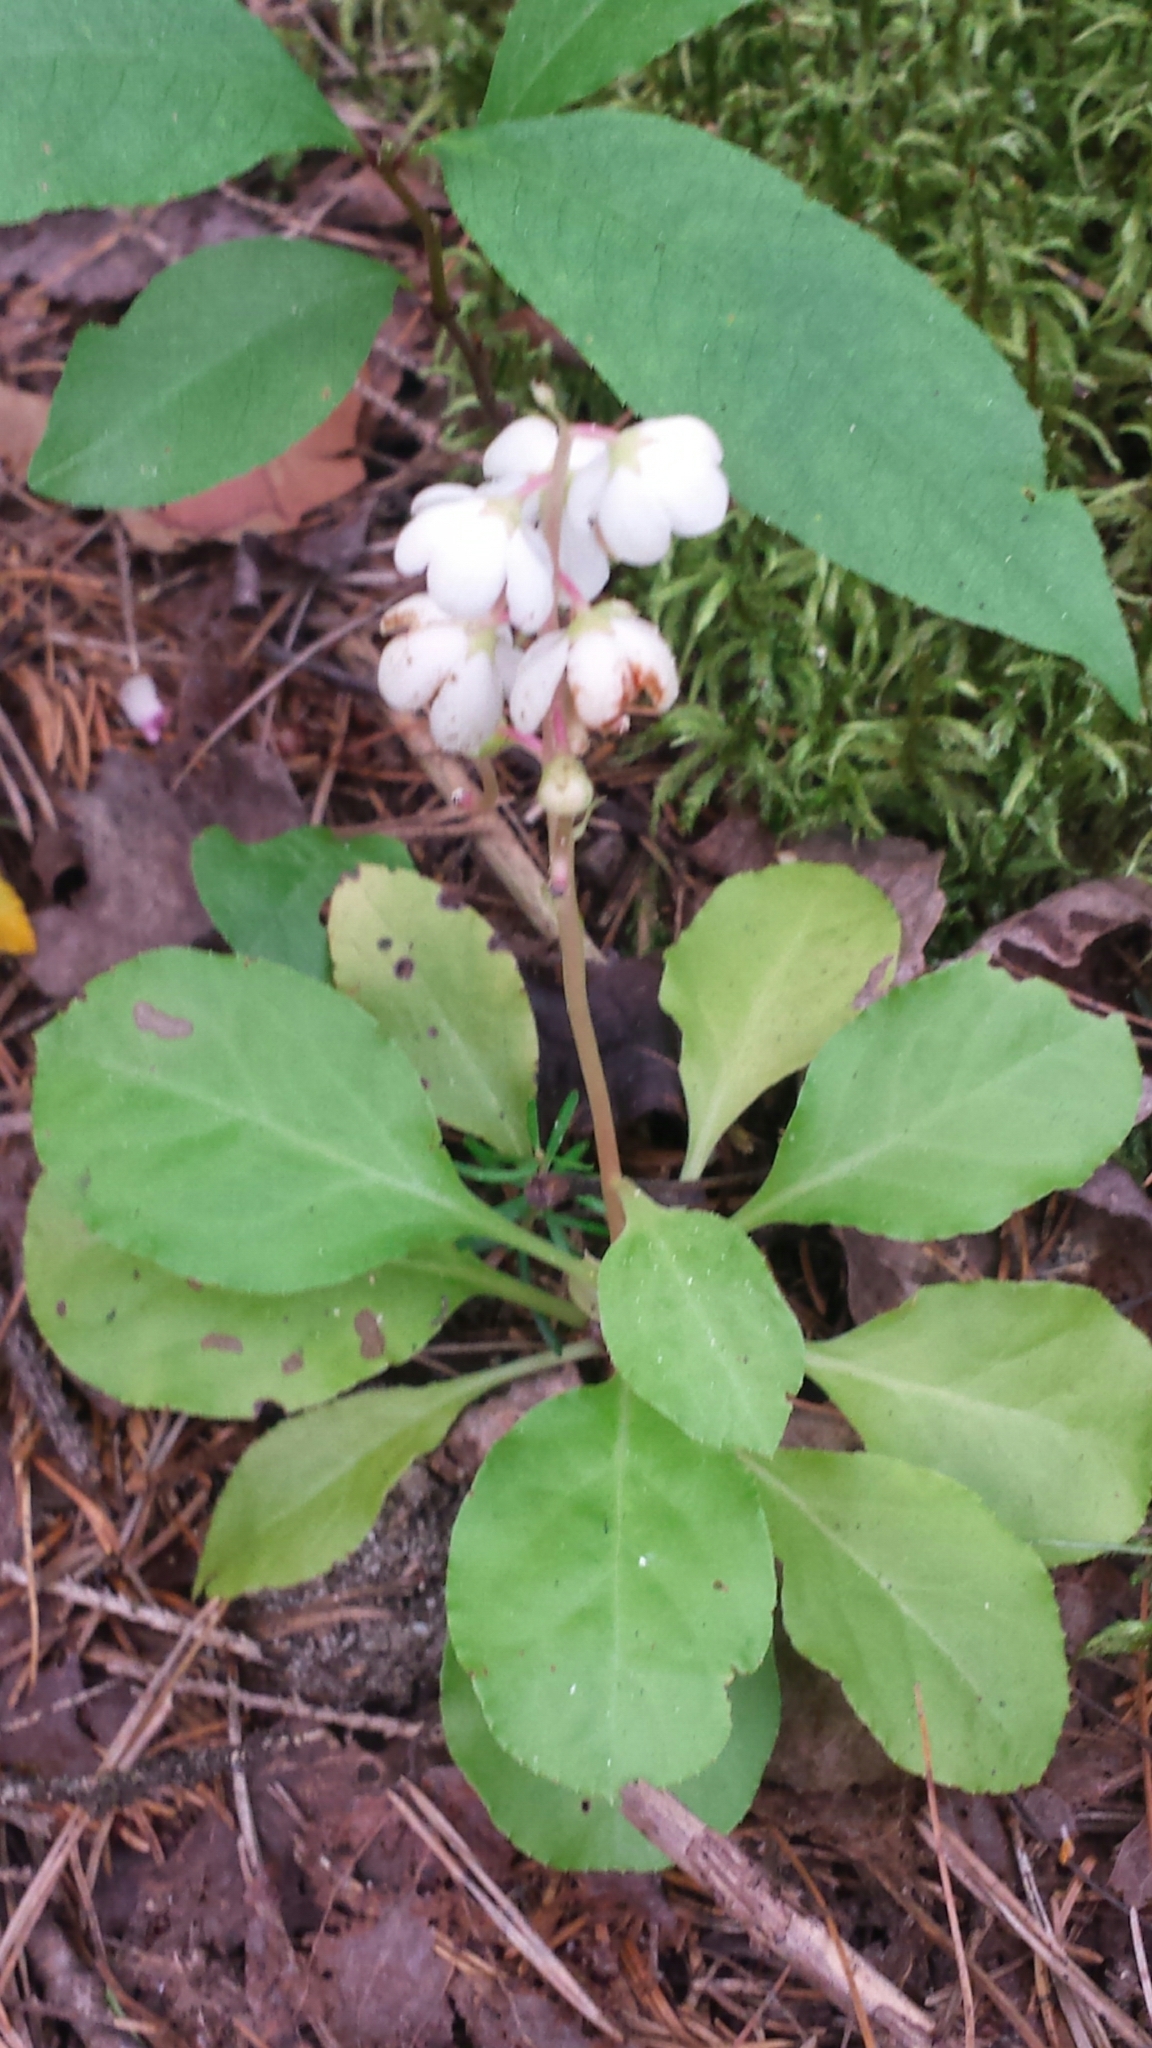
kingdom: Plantae
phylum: Tracheophyta
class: Magnoliopsida
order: Ericales
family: Ericaceae
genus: Pyrola
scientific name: Pyrola elliptica
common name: Shinleaf
